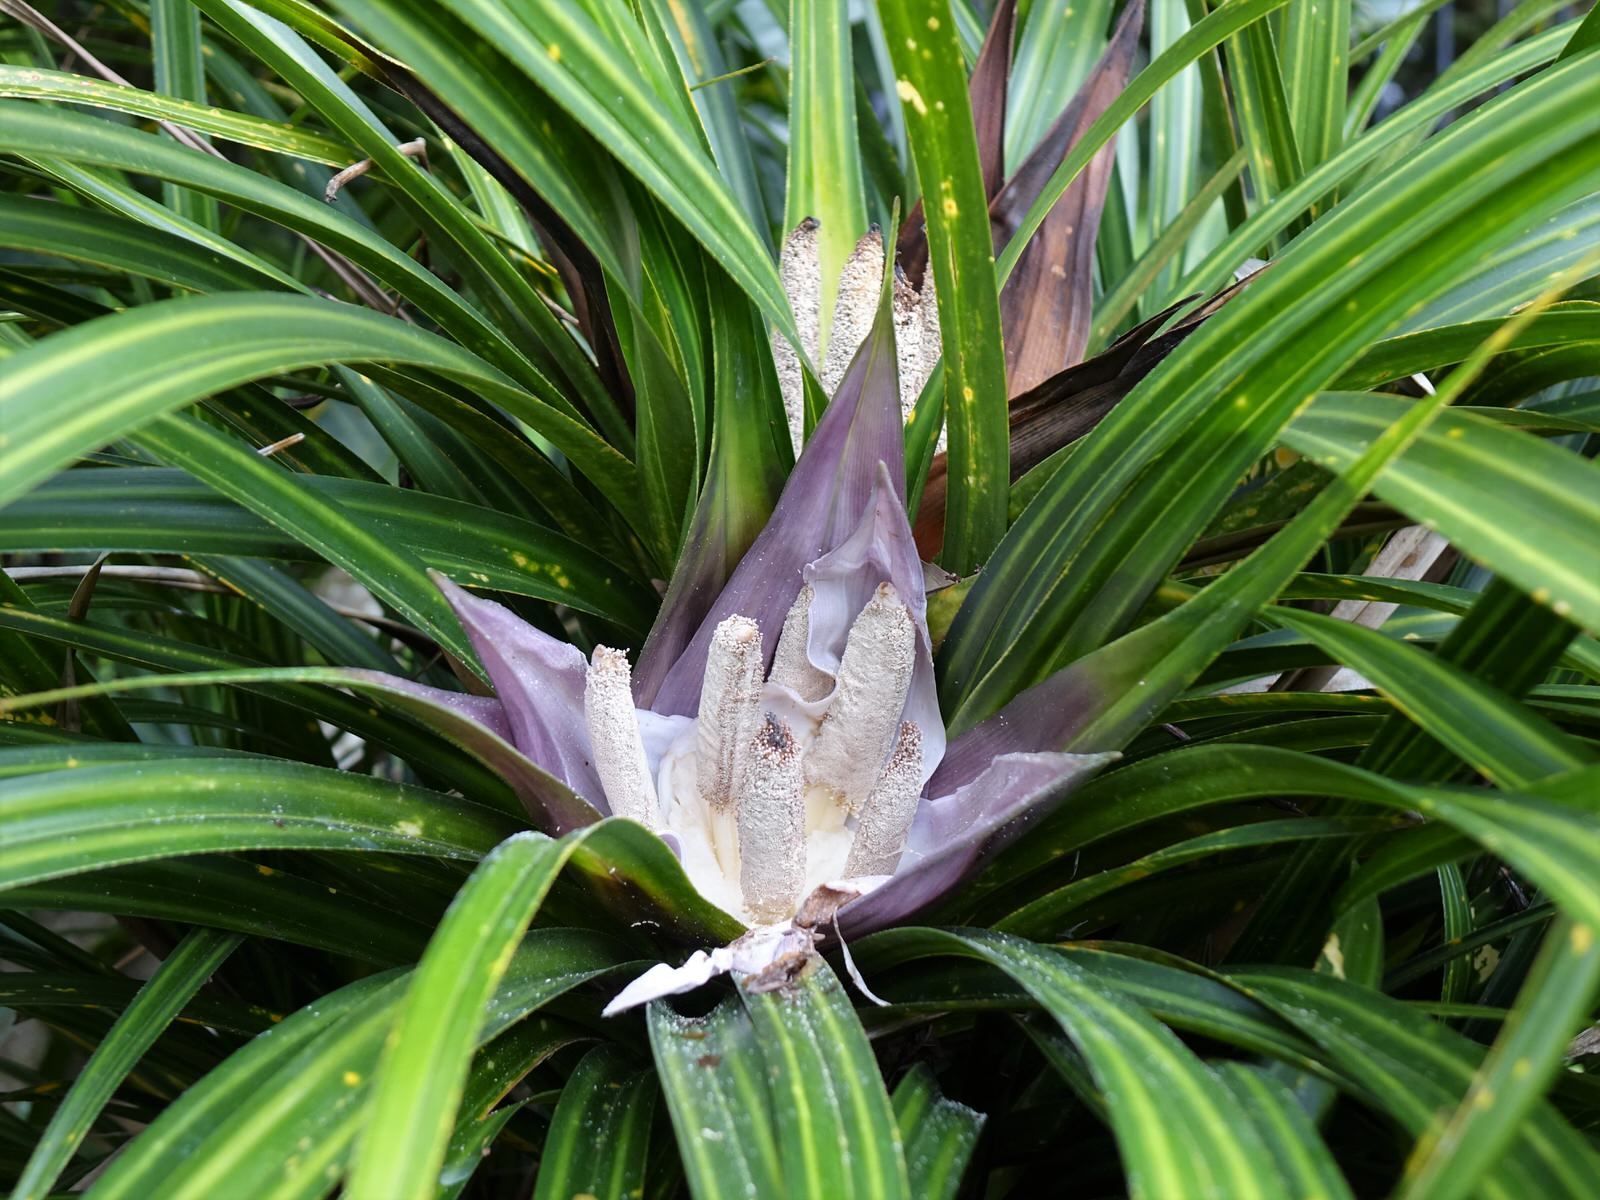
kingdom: Plantae
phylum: Tracheophyta
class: Liliopsida
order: Pandanales
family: Pandanaceae
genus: Freycinetia
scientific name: Freycinetia banksii
